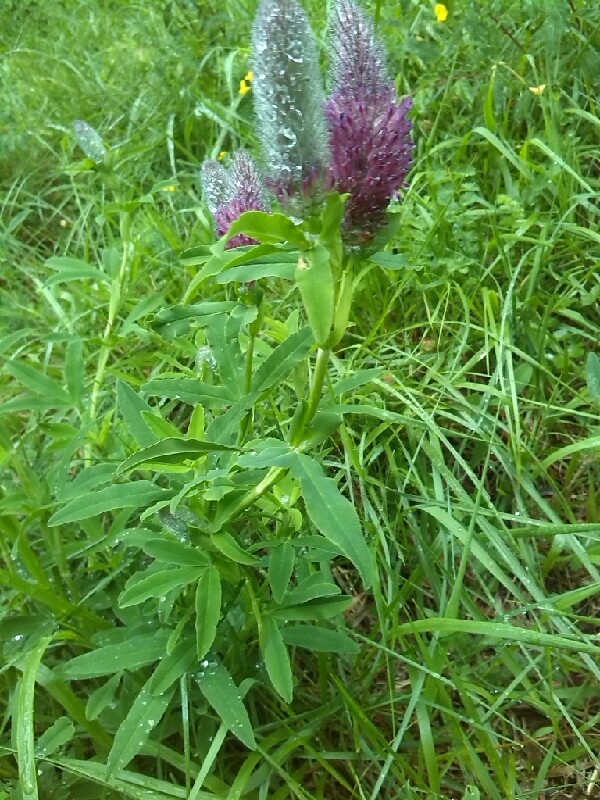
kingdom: Plantae
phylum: Tracheophyta
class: Magnoliopsida
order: Fabales
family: Fabaceae
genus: Trifolium
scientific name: Trifolium rubens
